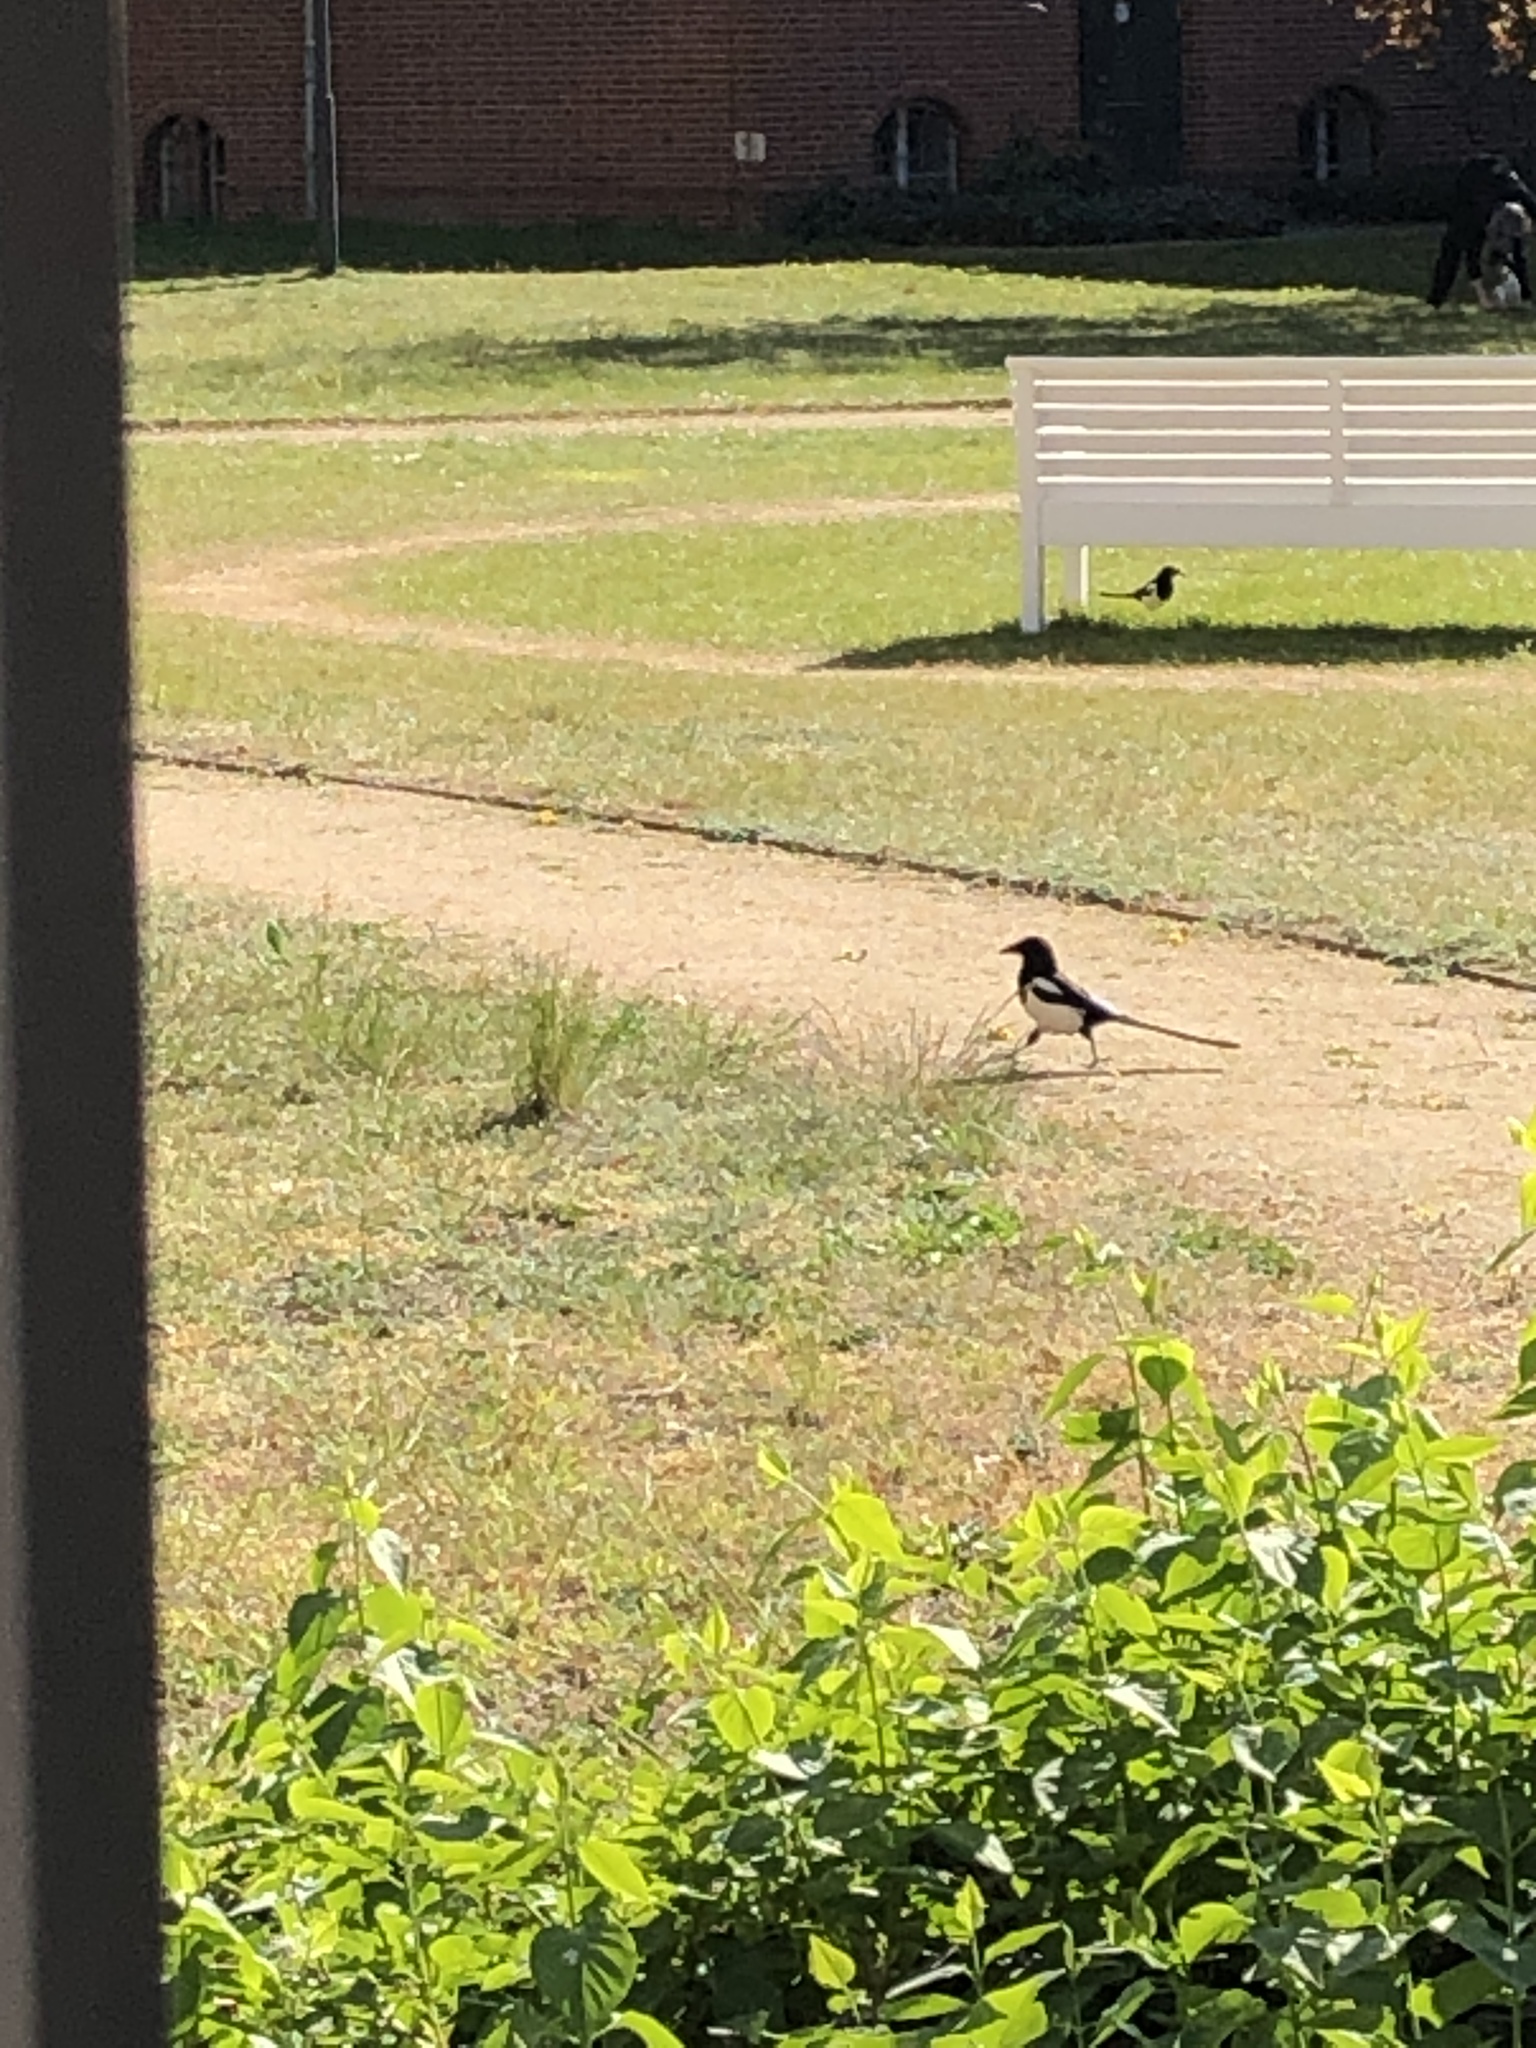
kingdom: Animalia
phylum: Chordata
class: Aves
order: Passeriformes
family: Corvidae
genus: Pica
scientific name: Pica pica
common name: Eurasian magpie
